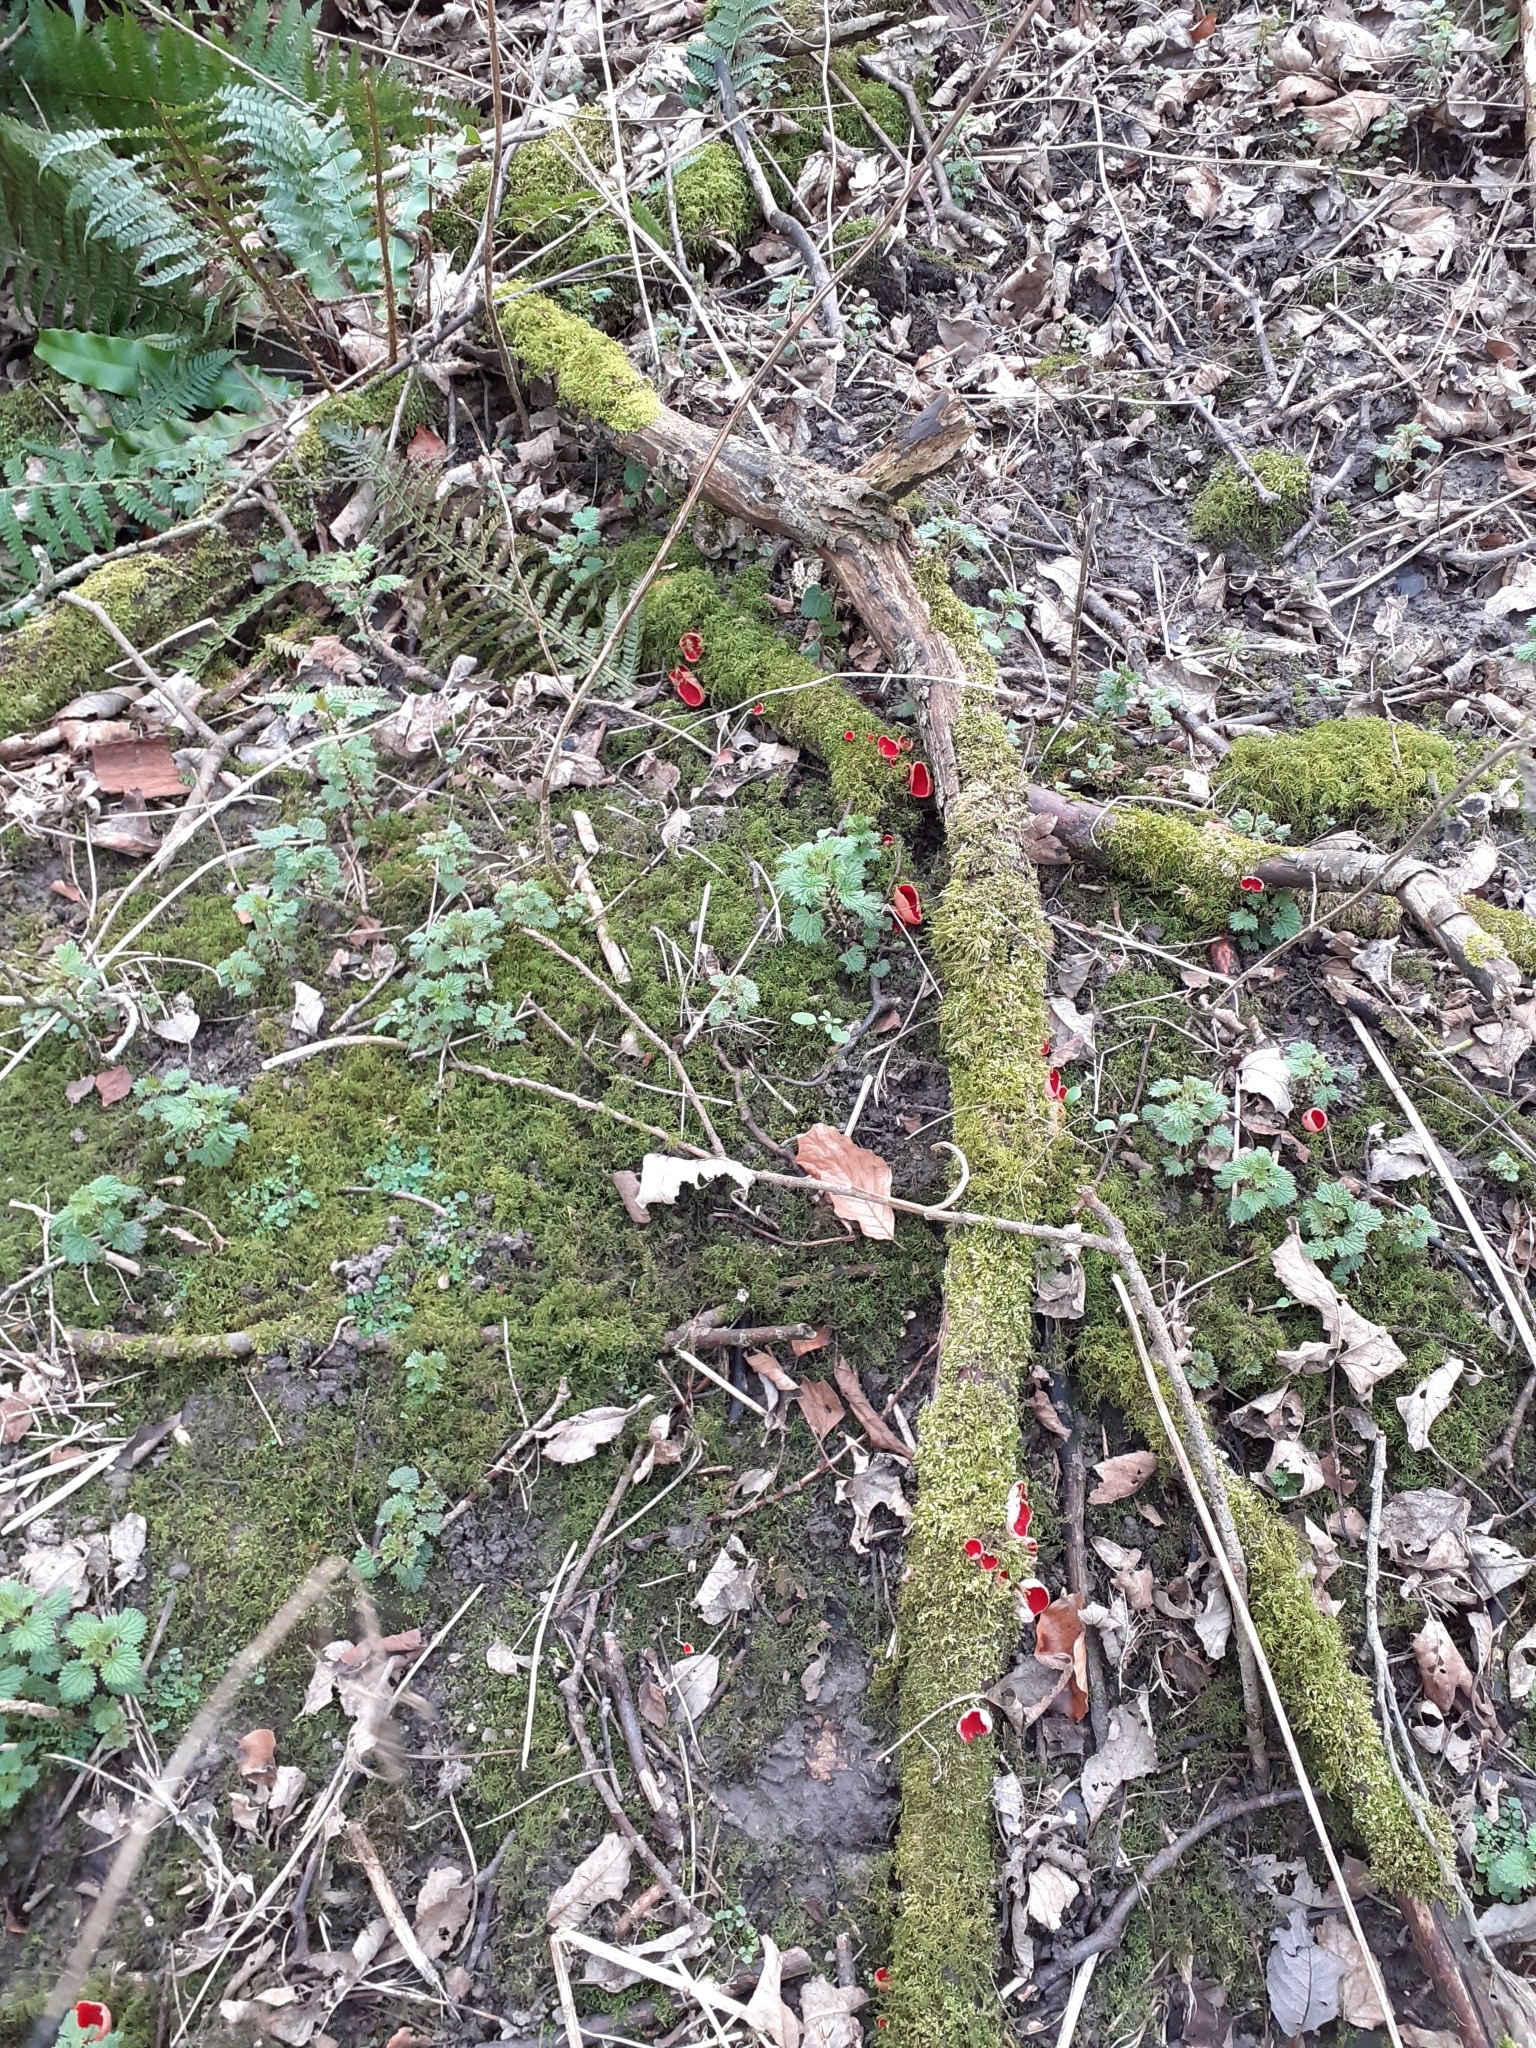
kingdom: Fungi
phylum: Ascomycota
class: Pezizomycetes
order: Pezizales
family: Sarcoscyphaceae
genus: Sarcoscypha
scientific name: Sarcoscypha
